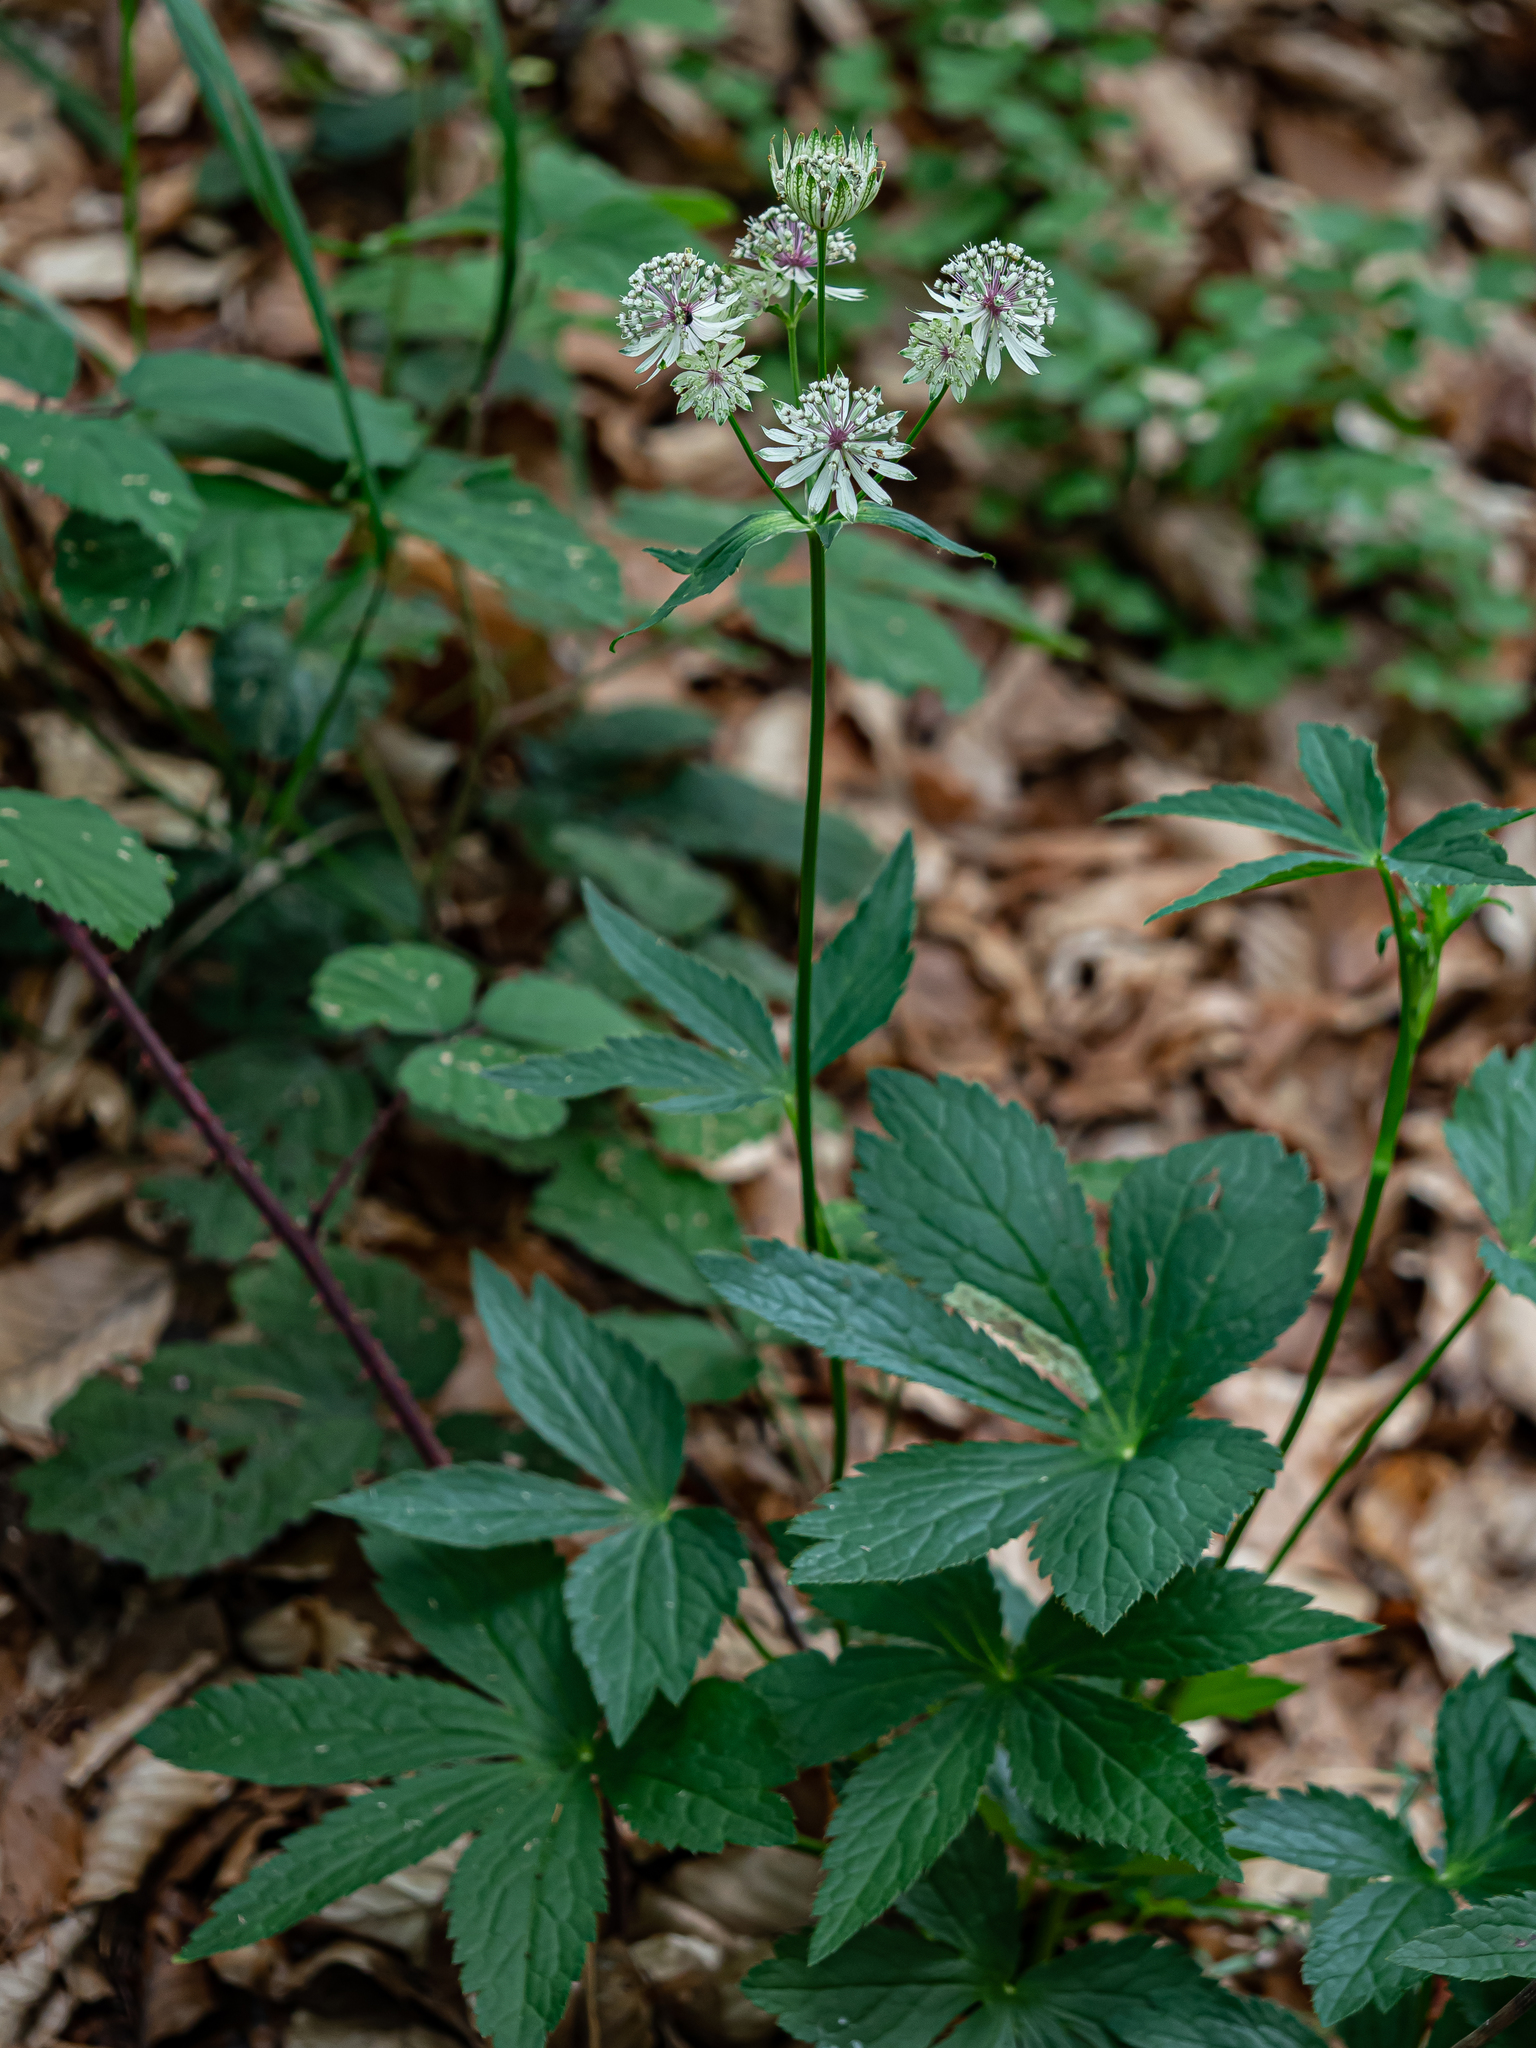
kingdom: Plantae
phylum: Tracheophyta
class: Magnoliopsida
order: Apiales
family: Apiaceae
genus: Astrantia
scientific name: Astrantia major
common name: Greater masterwort
